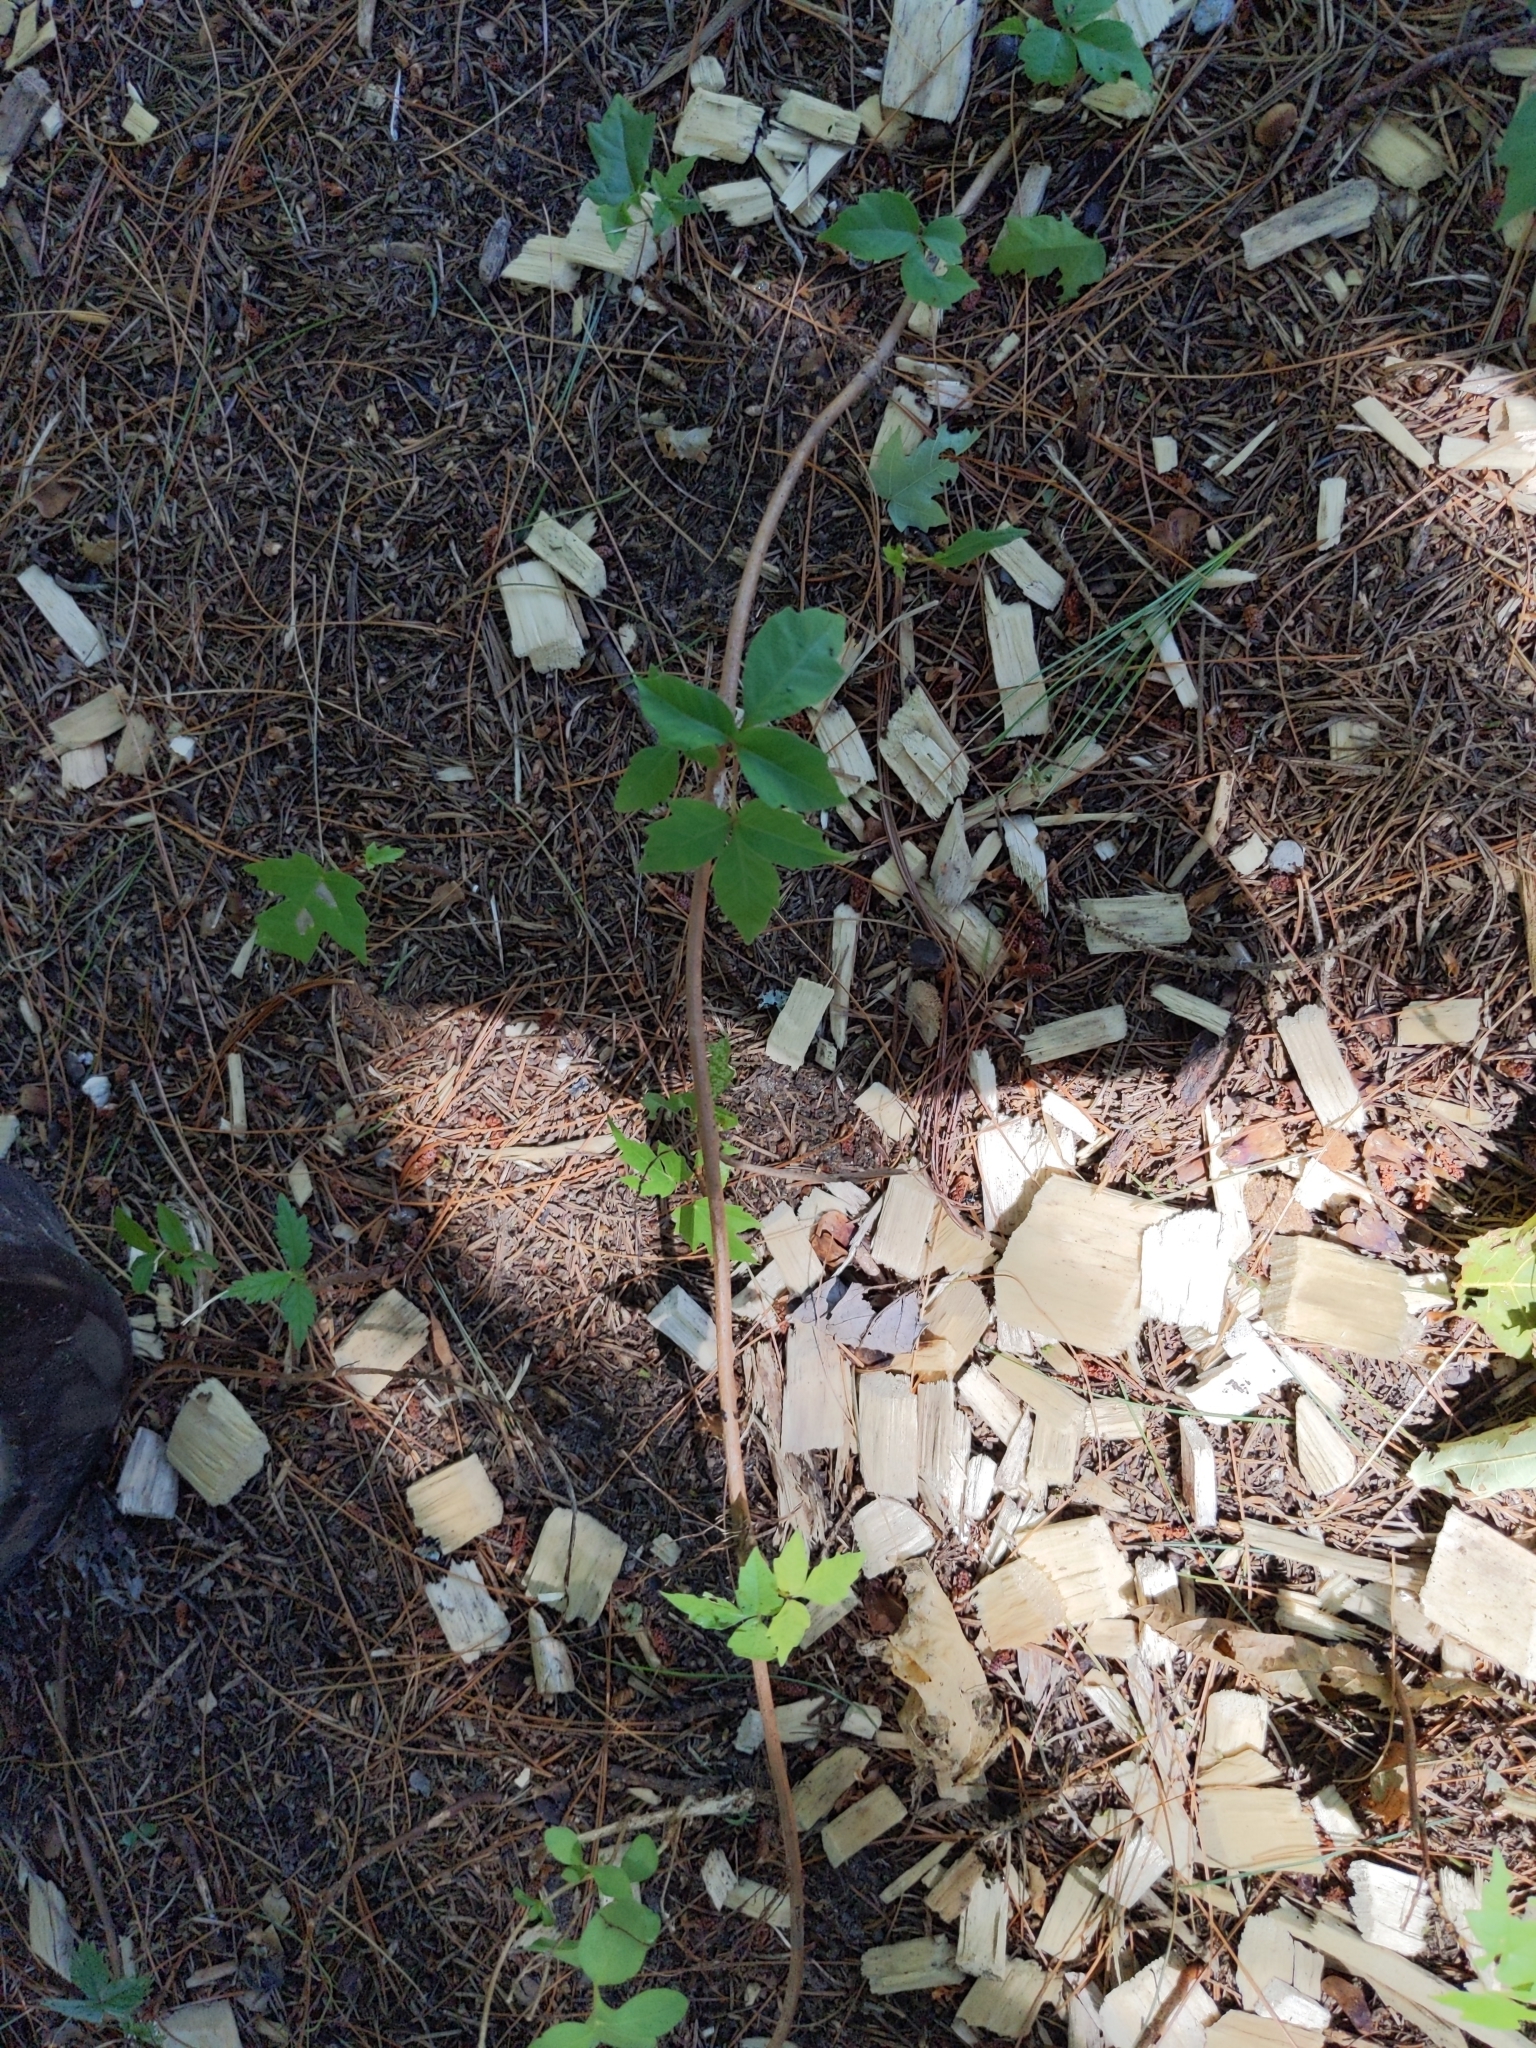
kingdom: Plantae
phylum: Tracheophyta
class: Magnoliopsida
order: Sapindales
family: Anacardiaceae
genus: Toxicodendron
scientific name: Toxicodendron radicans
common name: Poison ivy
